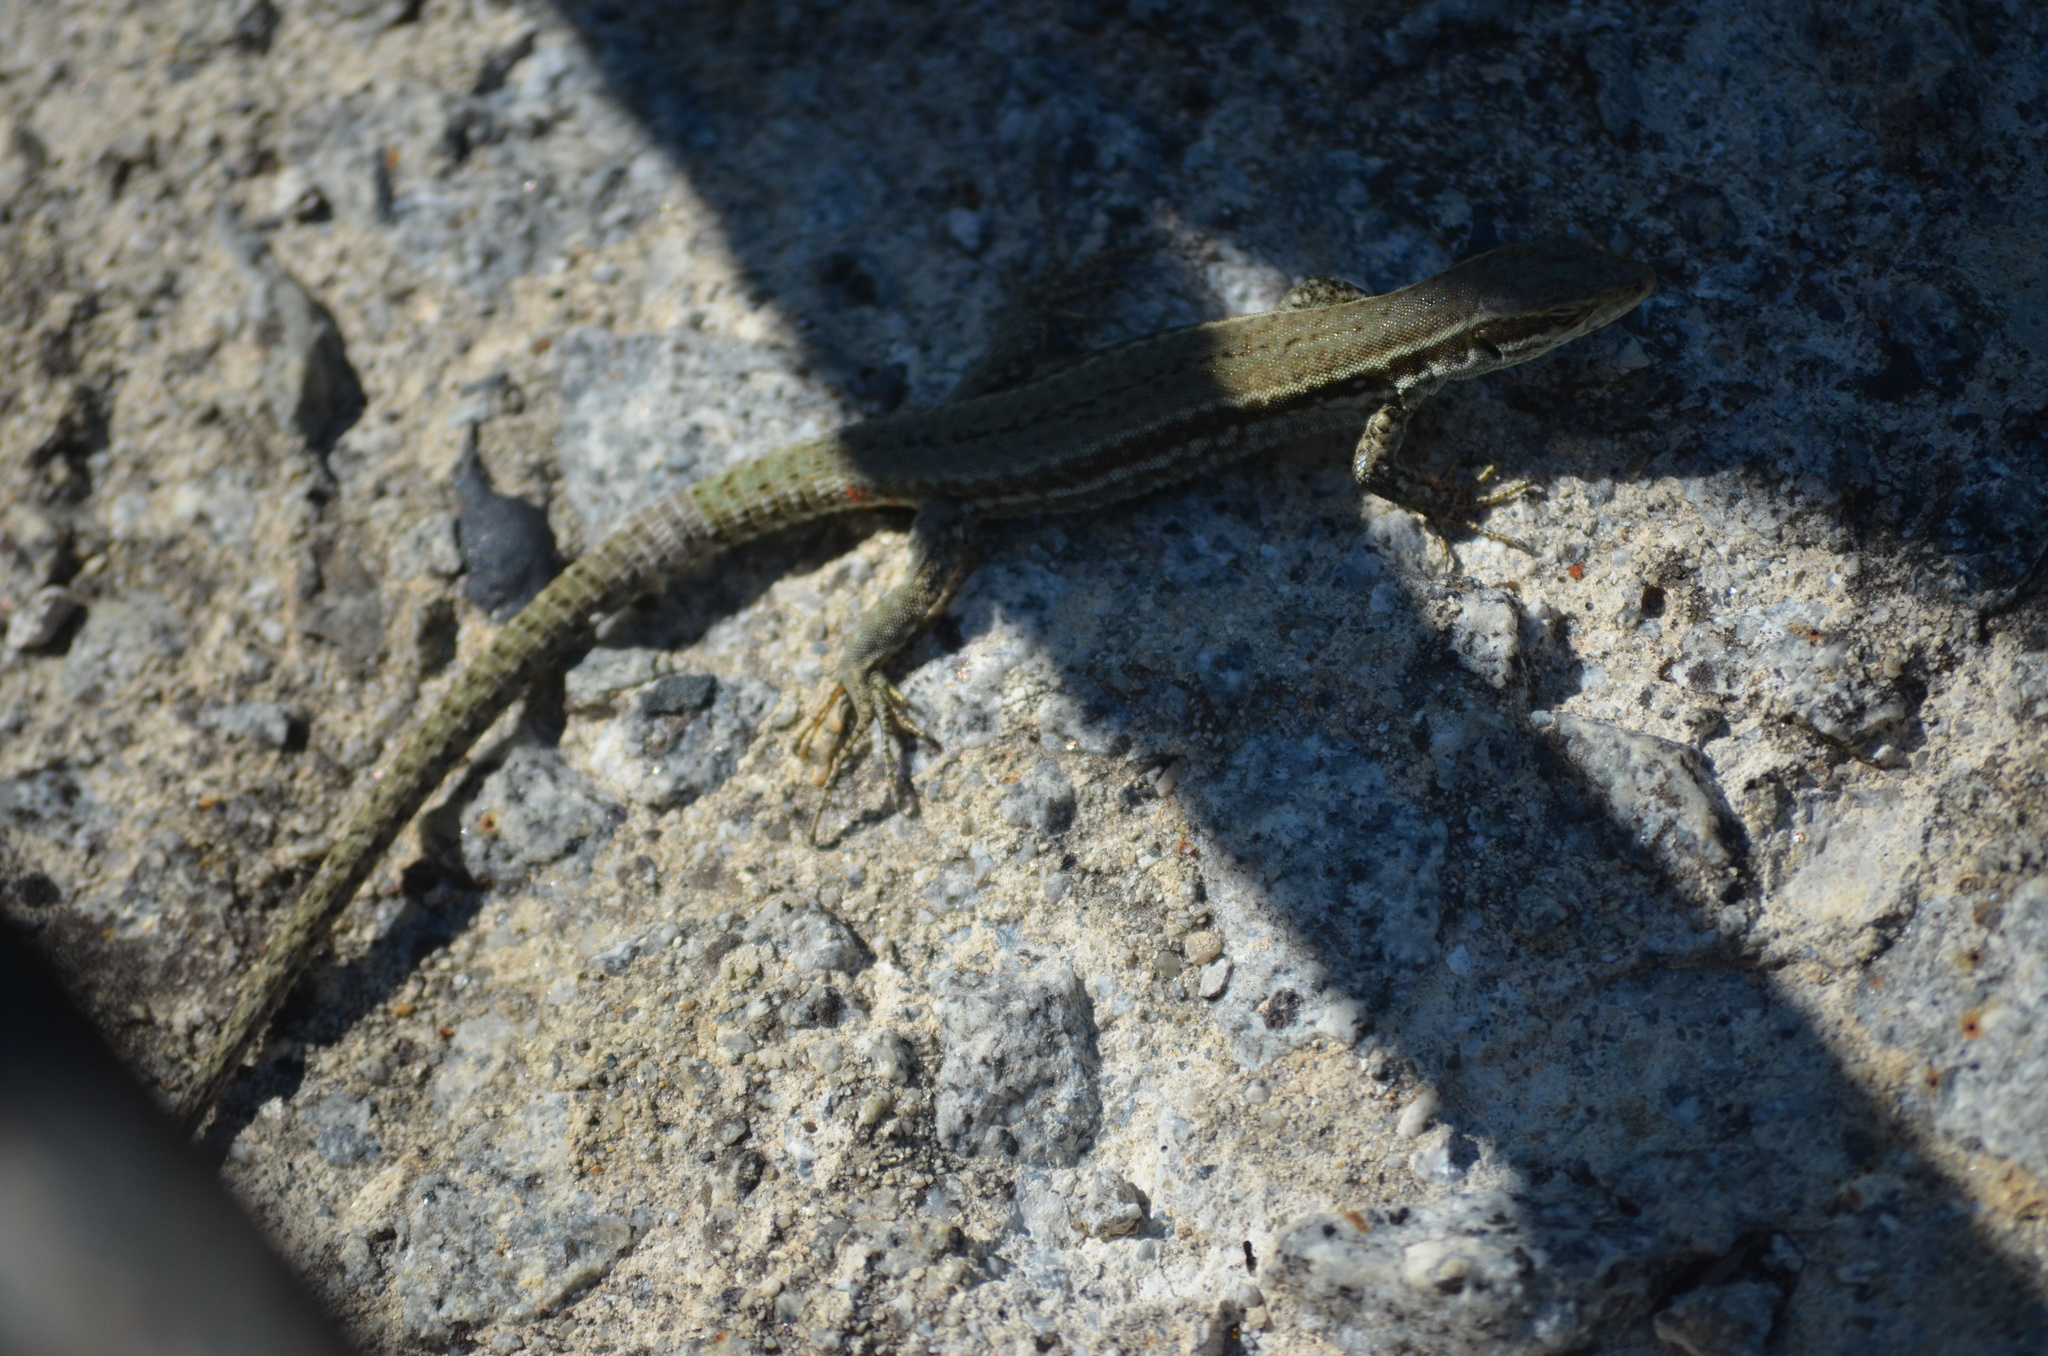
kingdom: Animalia
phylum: Chordata
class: Squamata
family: Lacertidae
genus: Podarcis
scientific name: Podarcis muralis
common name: Common wall lizard
